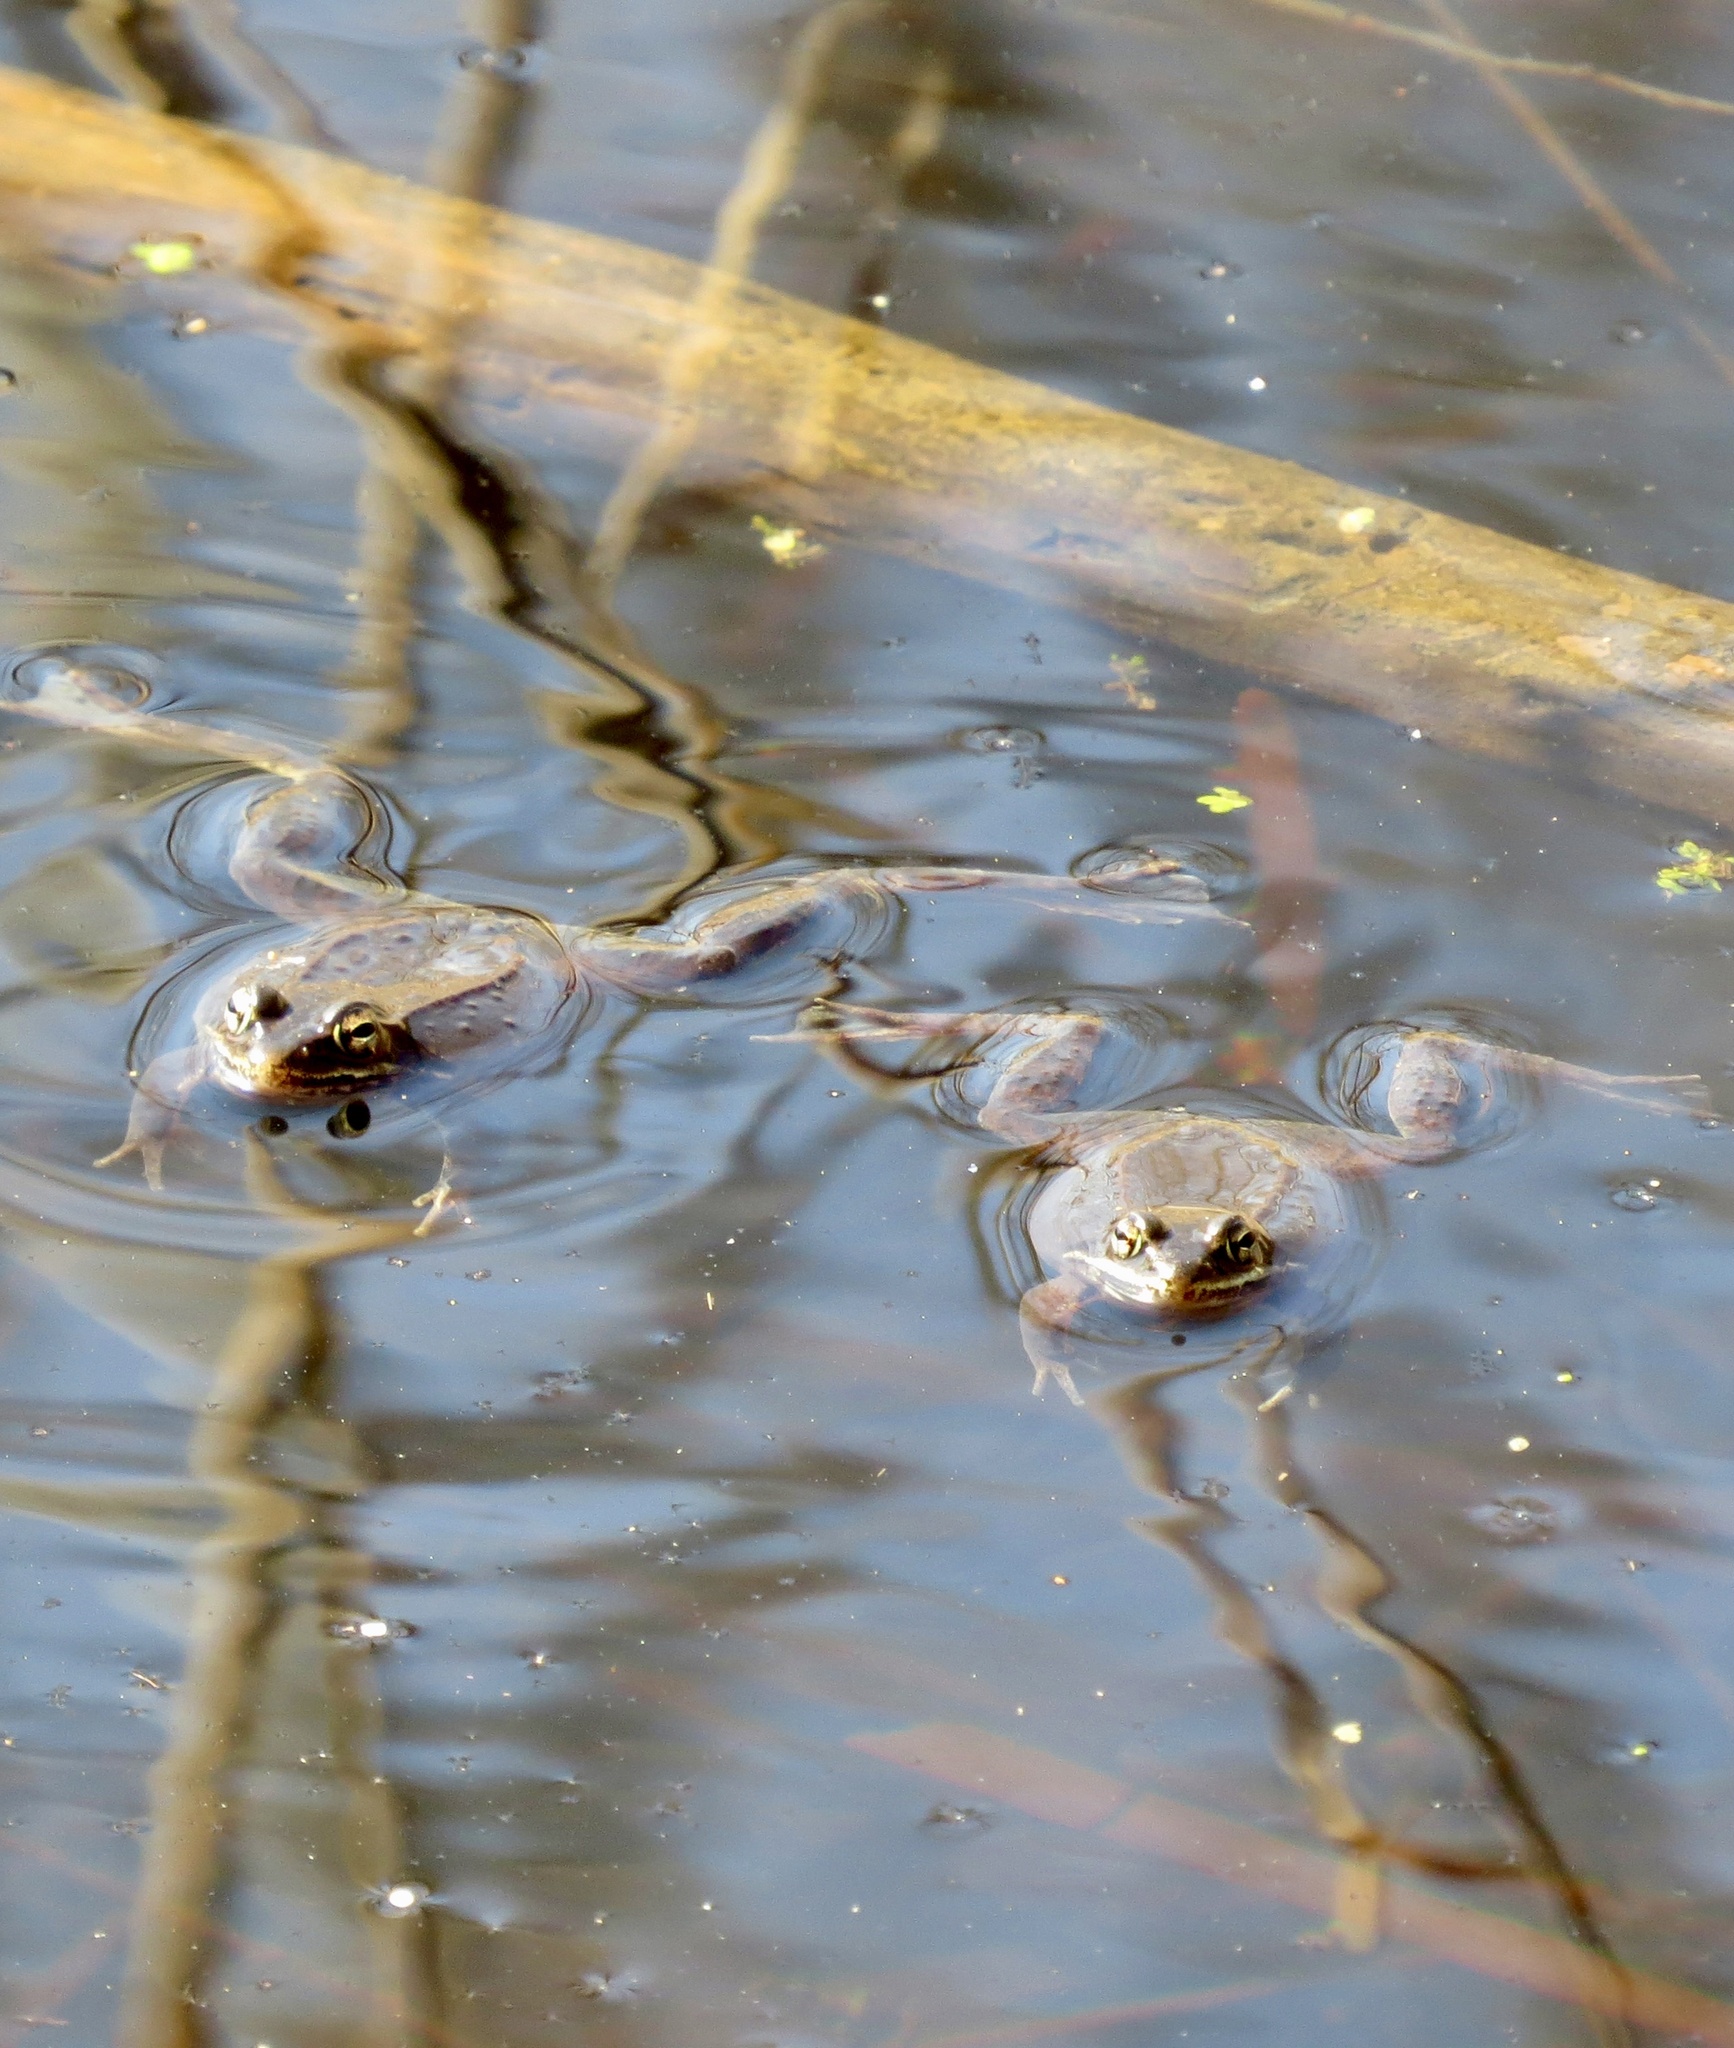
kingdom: Animalia
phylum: Chordata
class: Amphibia
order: Anura
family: Ranidae
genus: Lithobates
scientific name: Lithobates sylvaticus
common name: Wood frog
